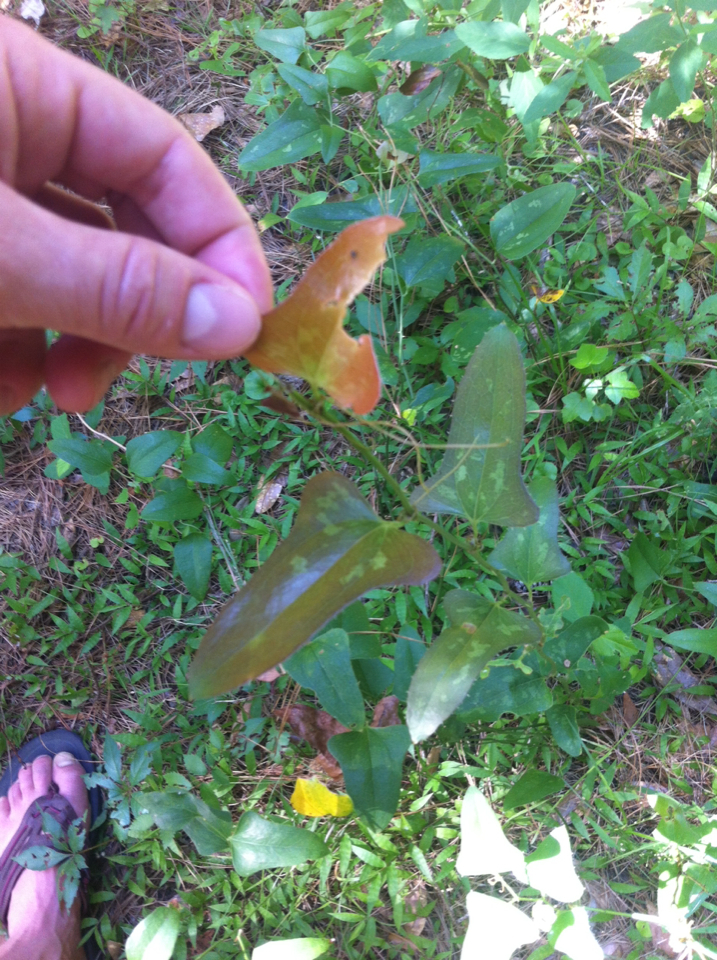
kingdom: Plantae
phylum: Tracheophyta
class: Liliopsida
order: Liliales
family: Smilacaceae
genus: Smilax
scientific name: Smilax bona-nox
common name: Catbrier
